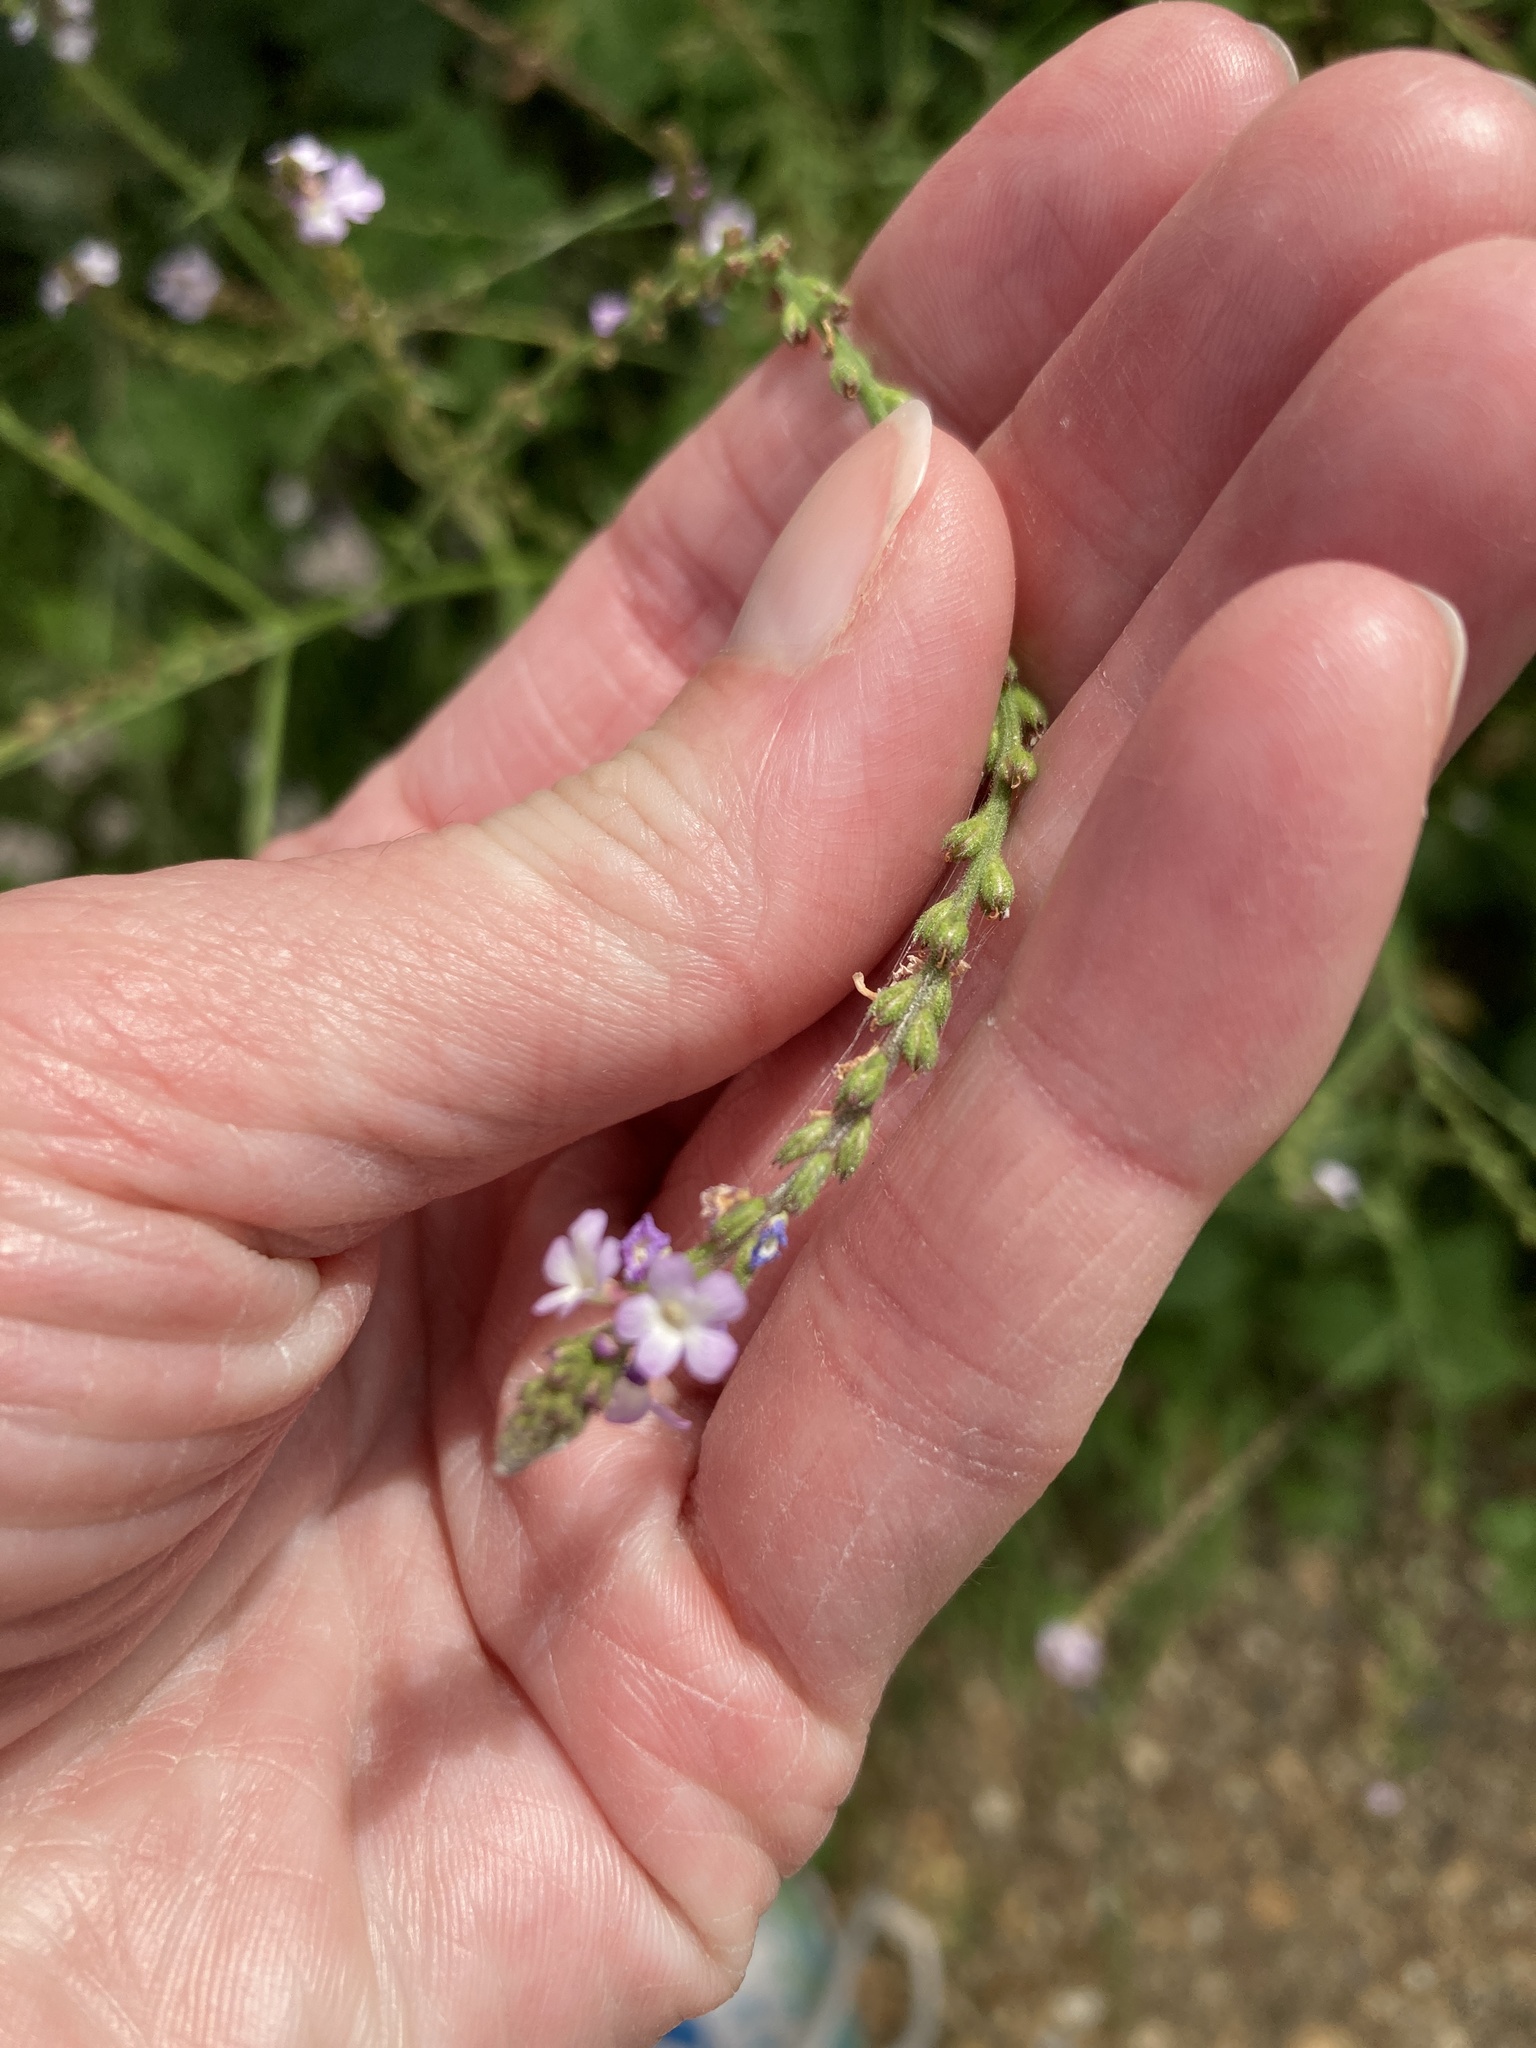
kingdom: Plantae
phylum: Tracheophyta
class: Magnoliopsida
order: Lamiales
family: Verbenaceae
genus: Verbena
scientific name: Verbena officinalis
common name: Vervain
